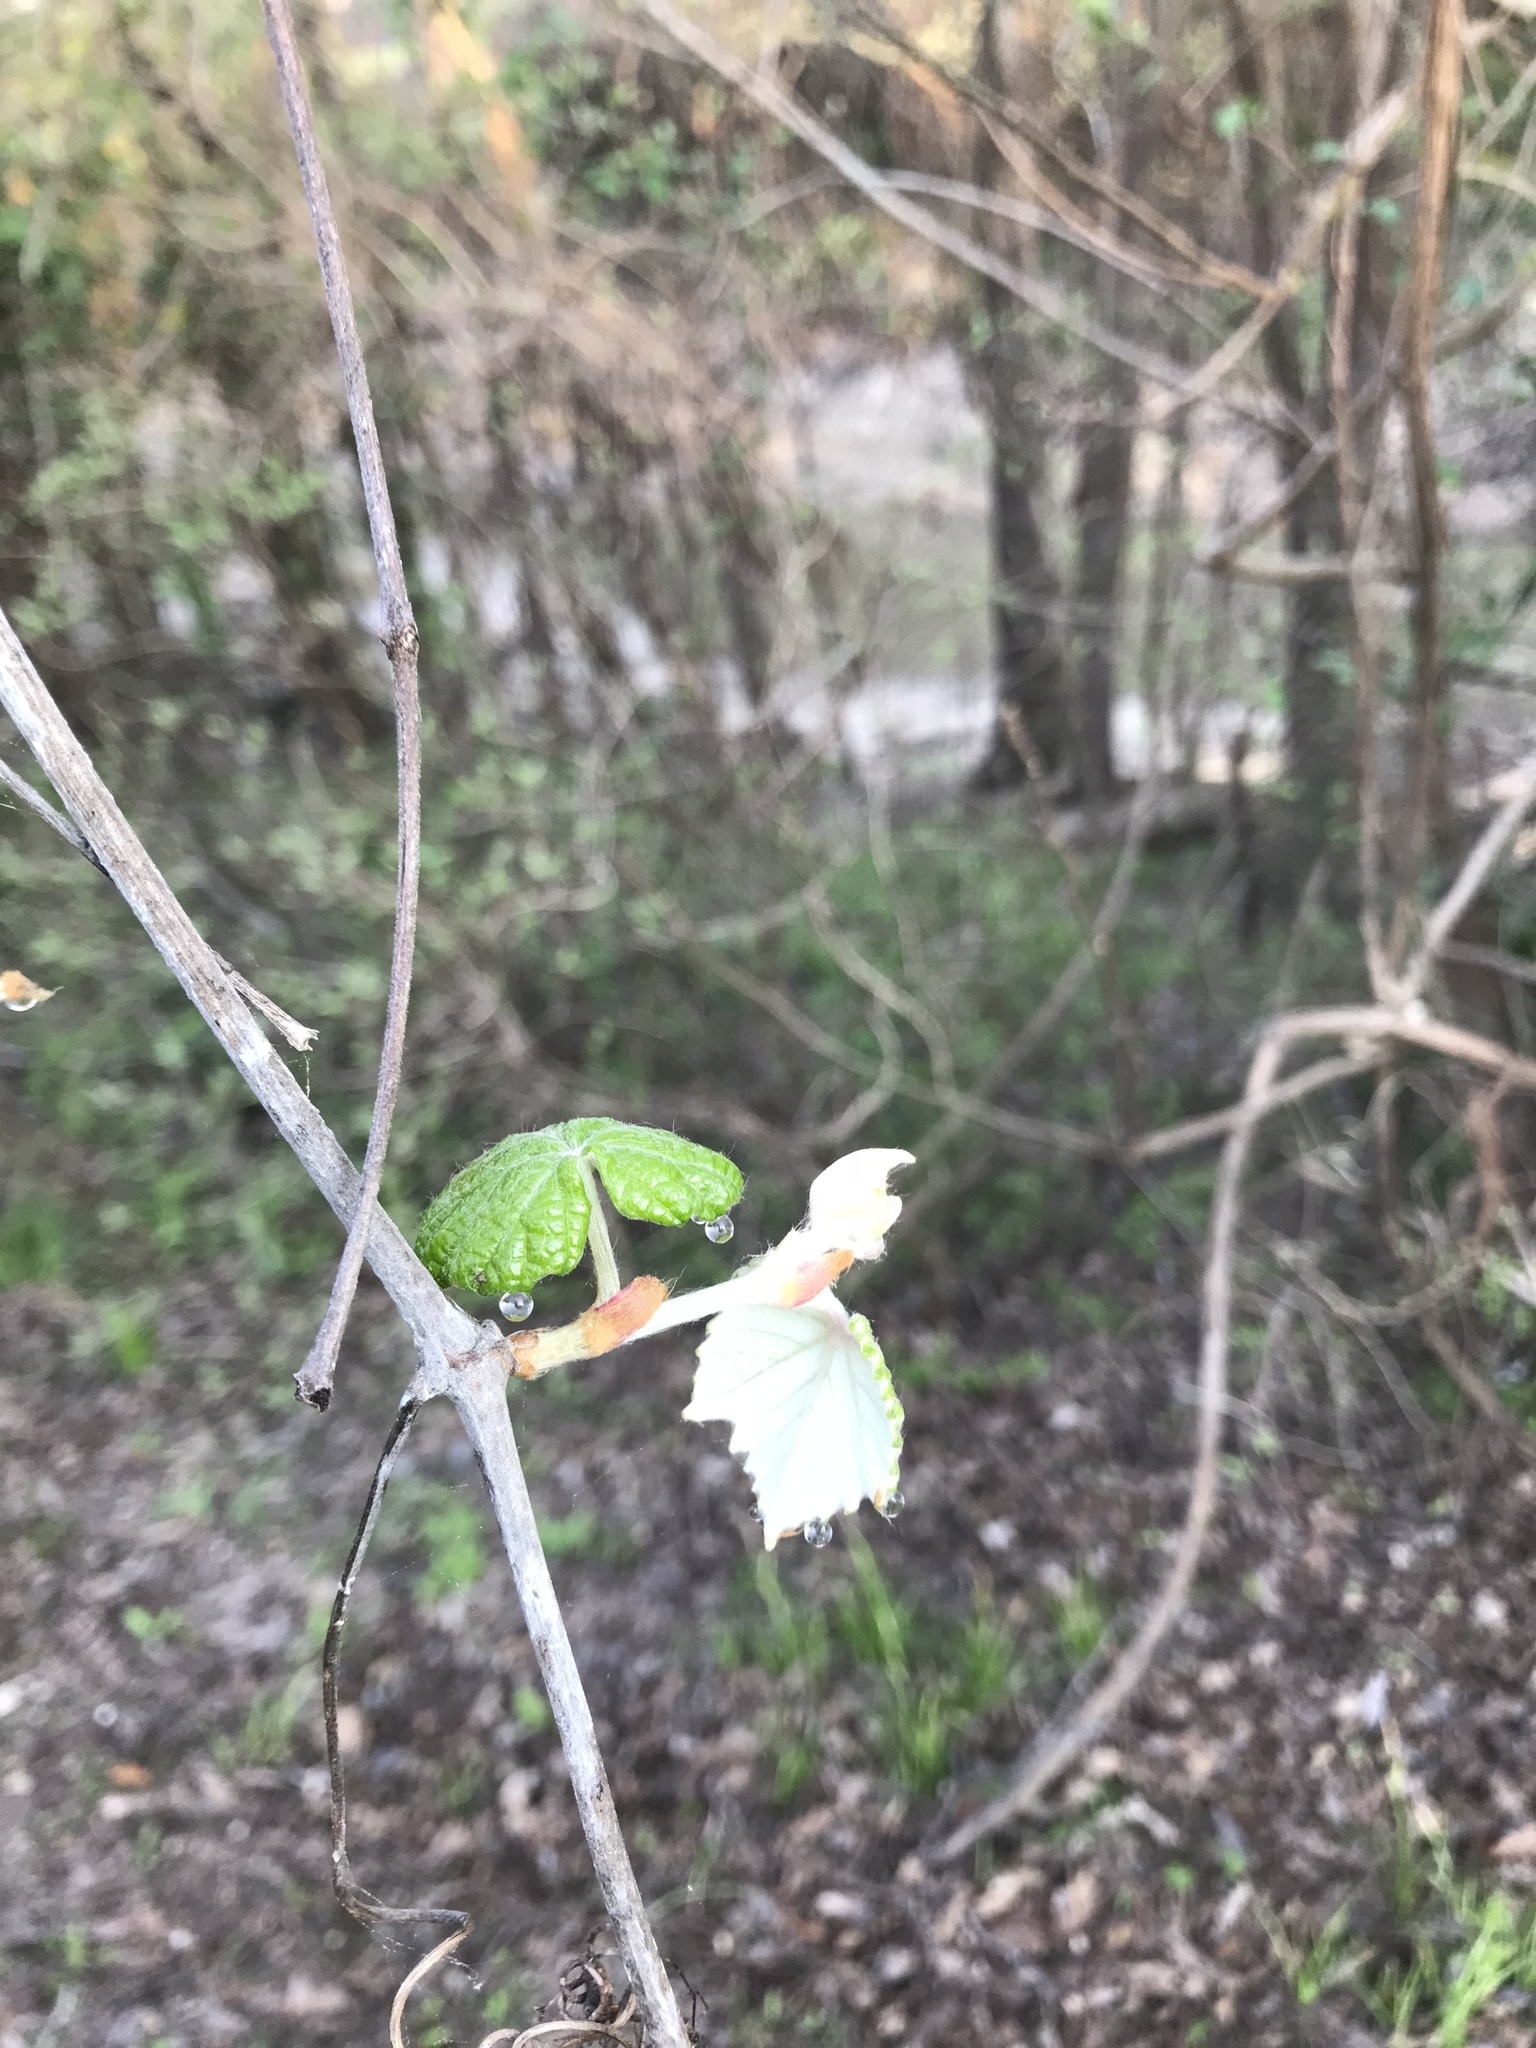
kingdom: Plantae
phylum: Tracheophyta
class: Magnoliopsida
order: Vitales
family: Vitaceae
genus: Vitis
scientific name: Vitis mustangensis
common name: Mustang grape
